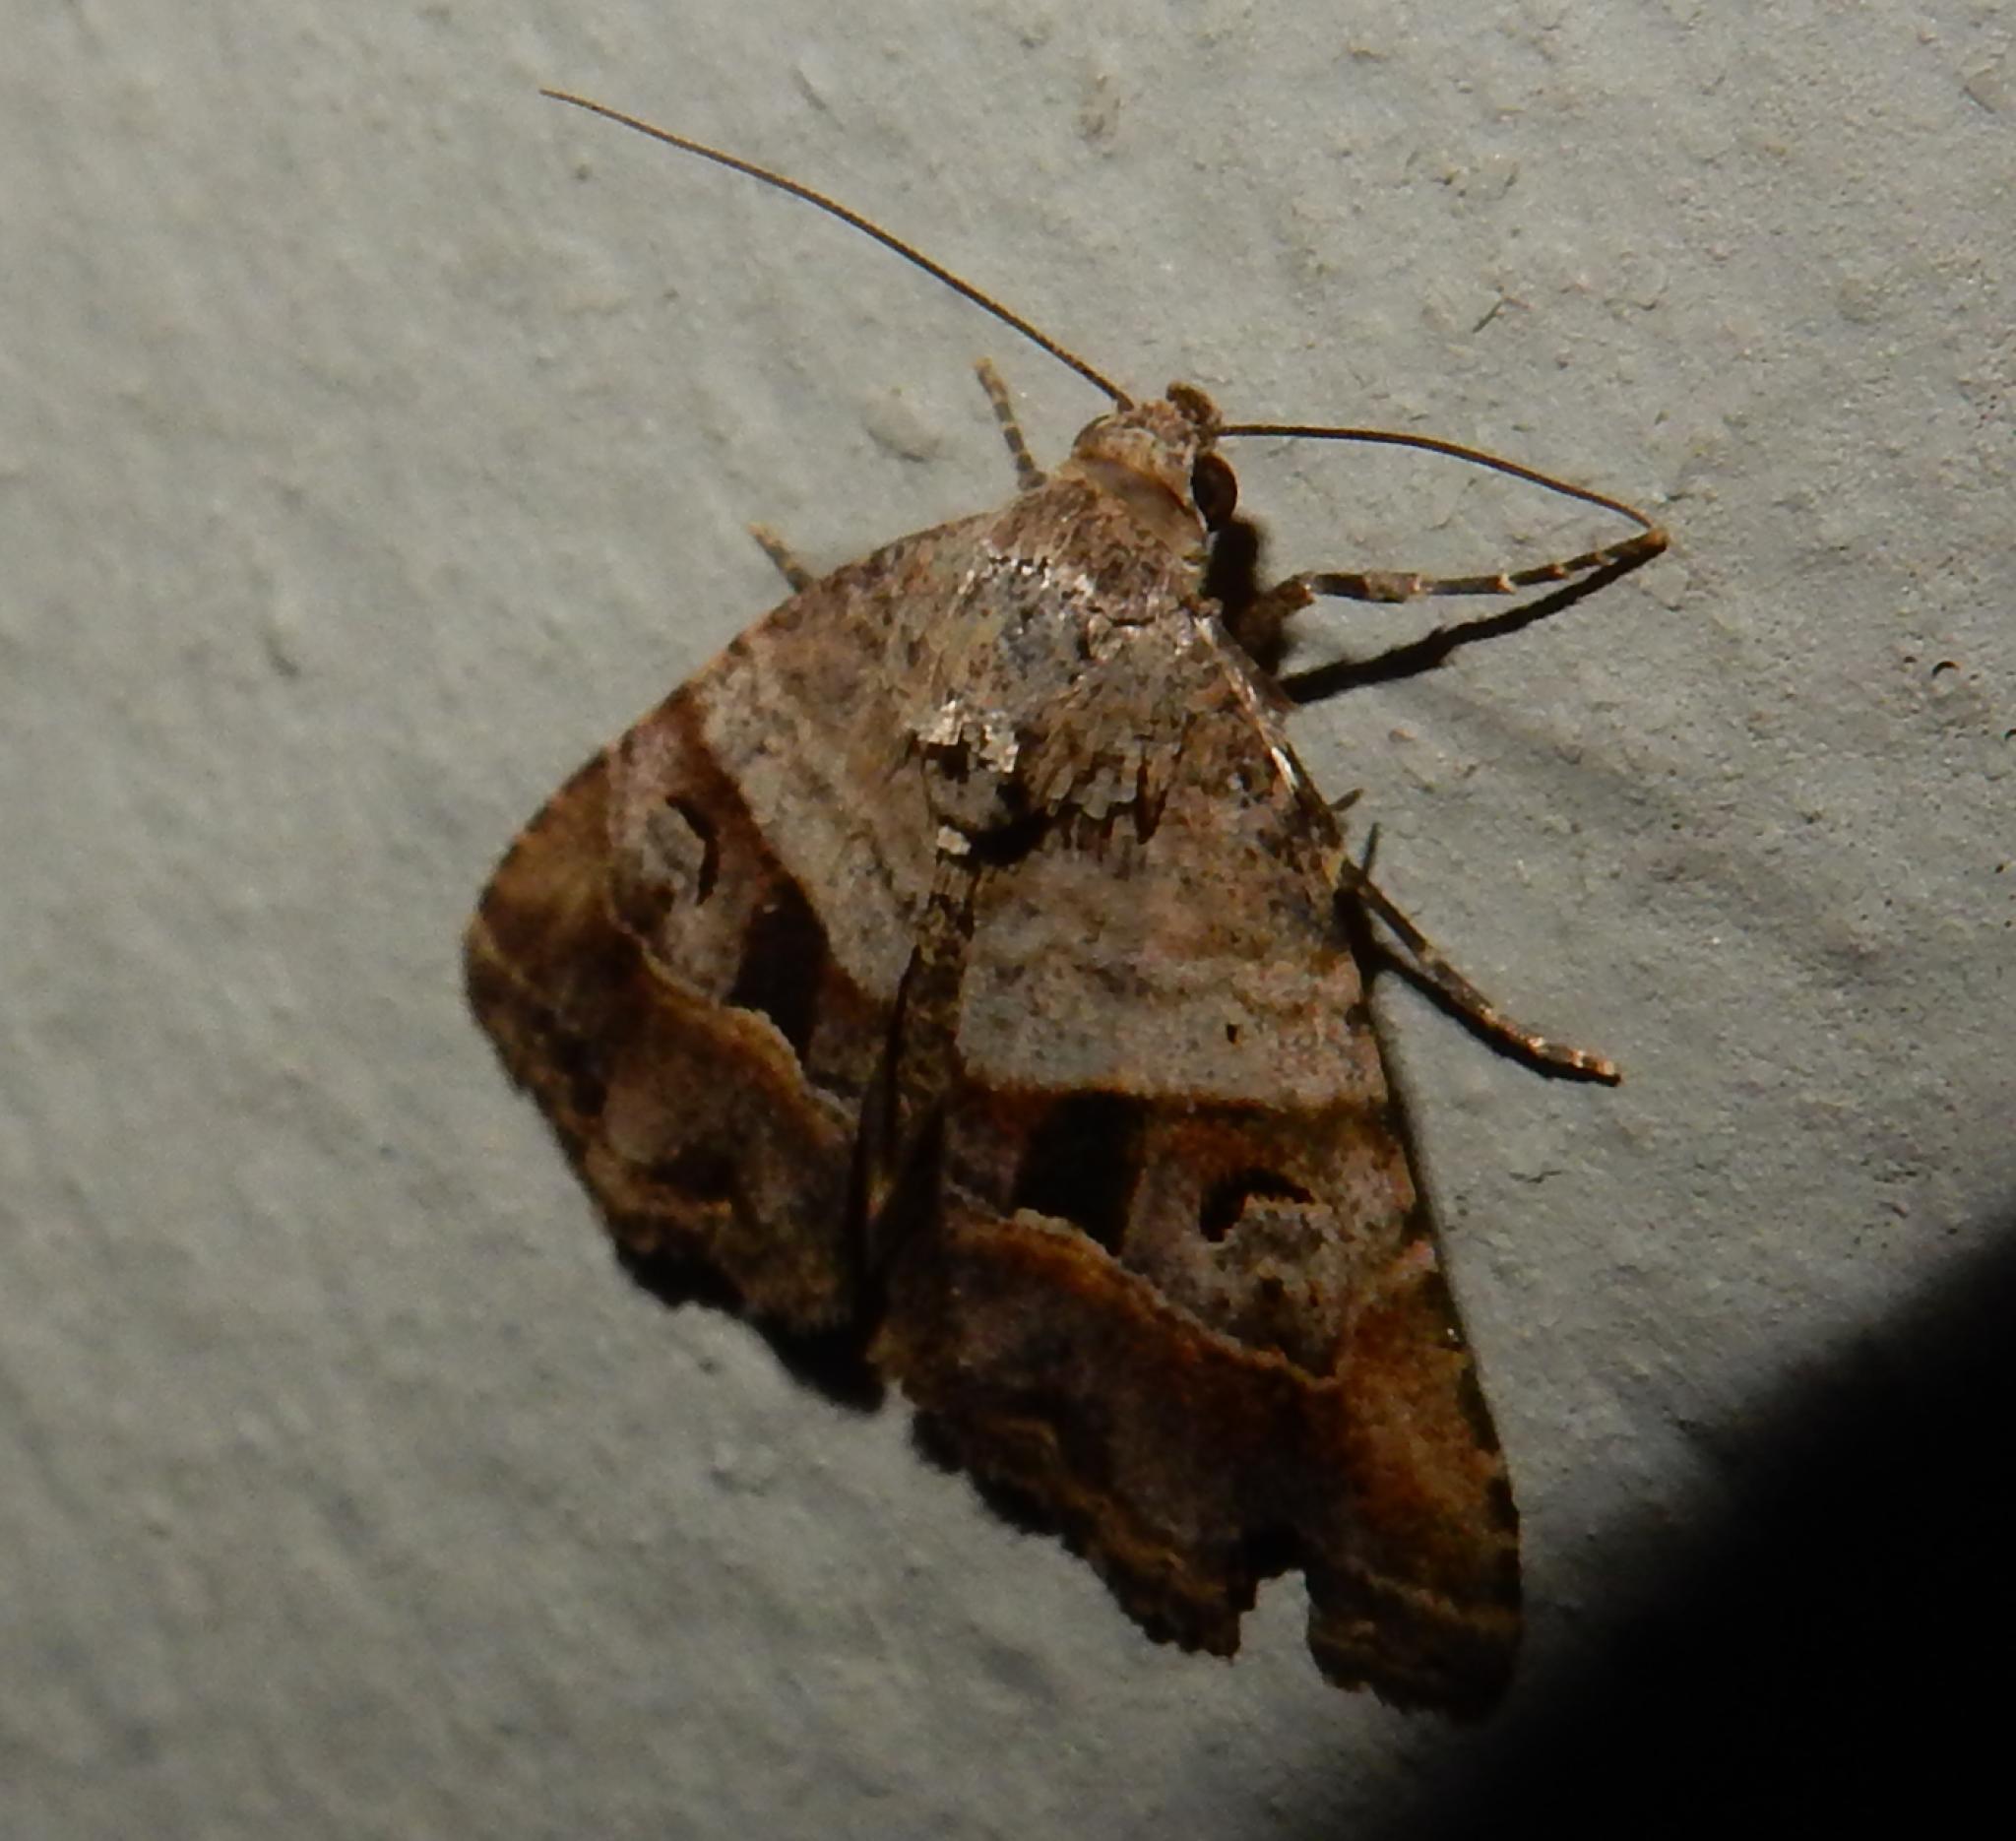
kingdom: Animalia
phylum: Arthropoda
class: Insecta
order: Lepidoptera
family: Noctuidae
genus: Ozarba
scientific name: Ozarba corniculans
